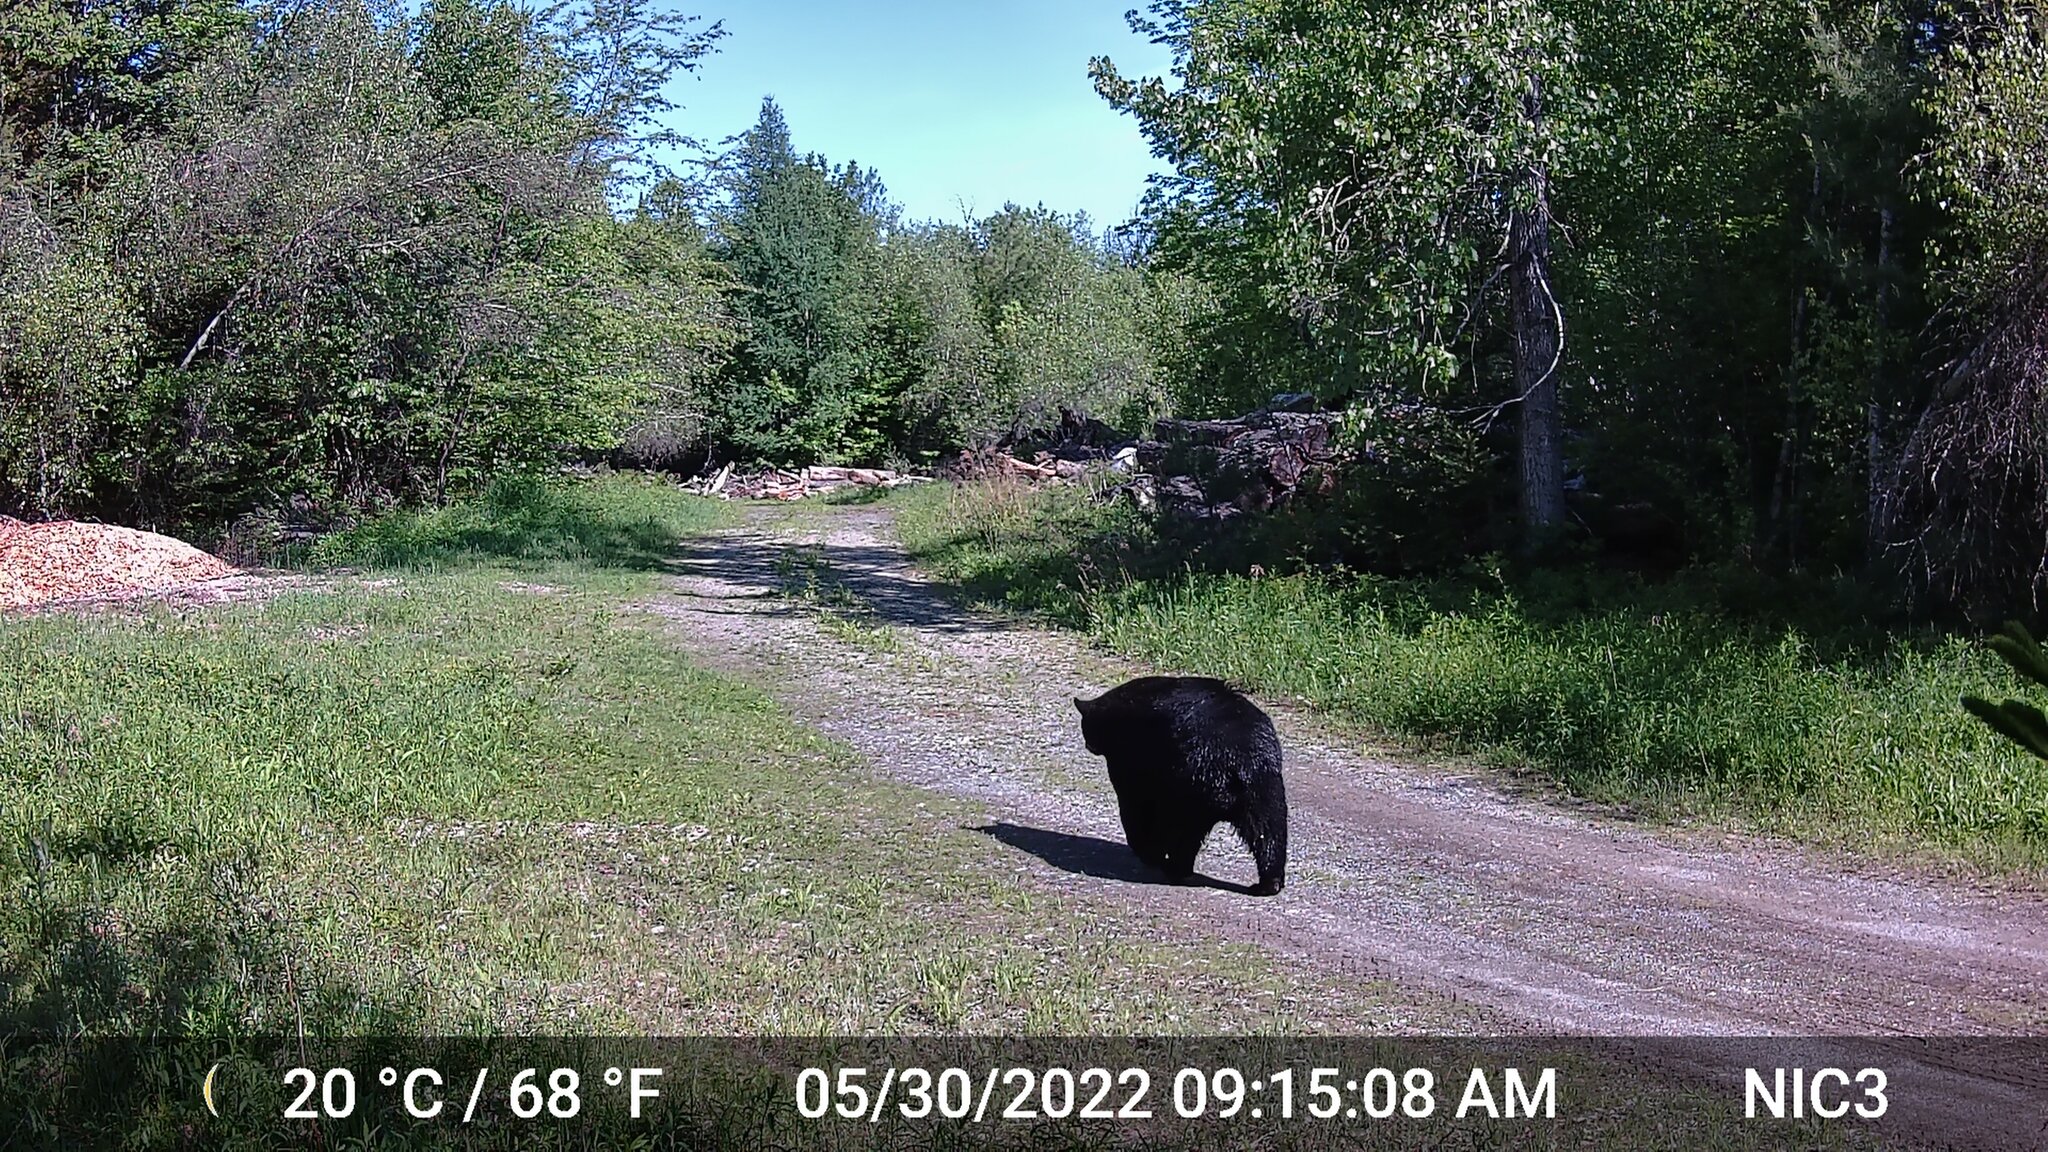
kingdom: Animalia
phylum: Chordata
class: Mammalia
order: Carnivora
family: Ursidae
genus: Ursus
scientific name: Ursus americanus
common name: American black bear
